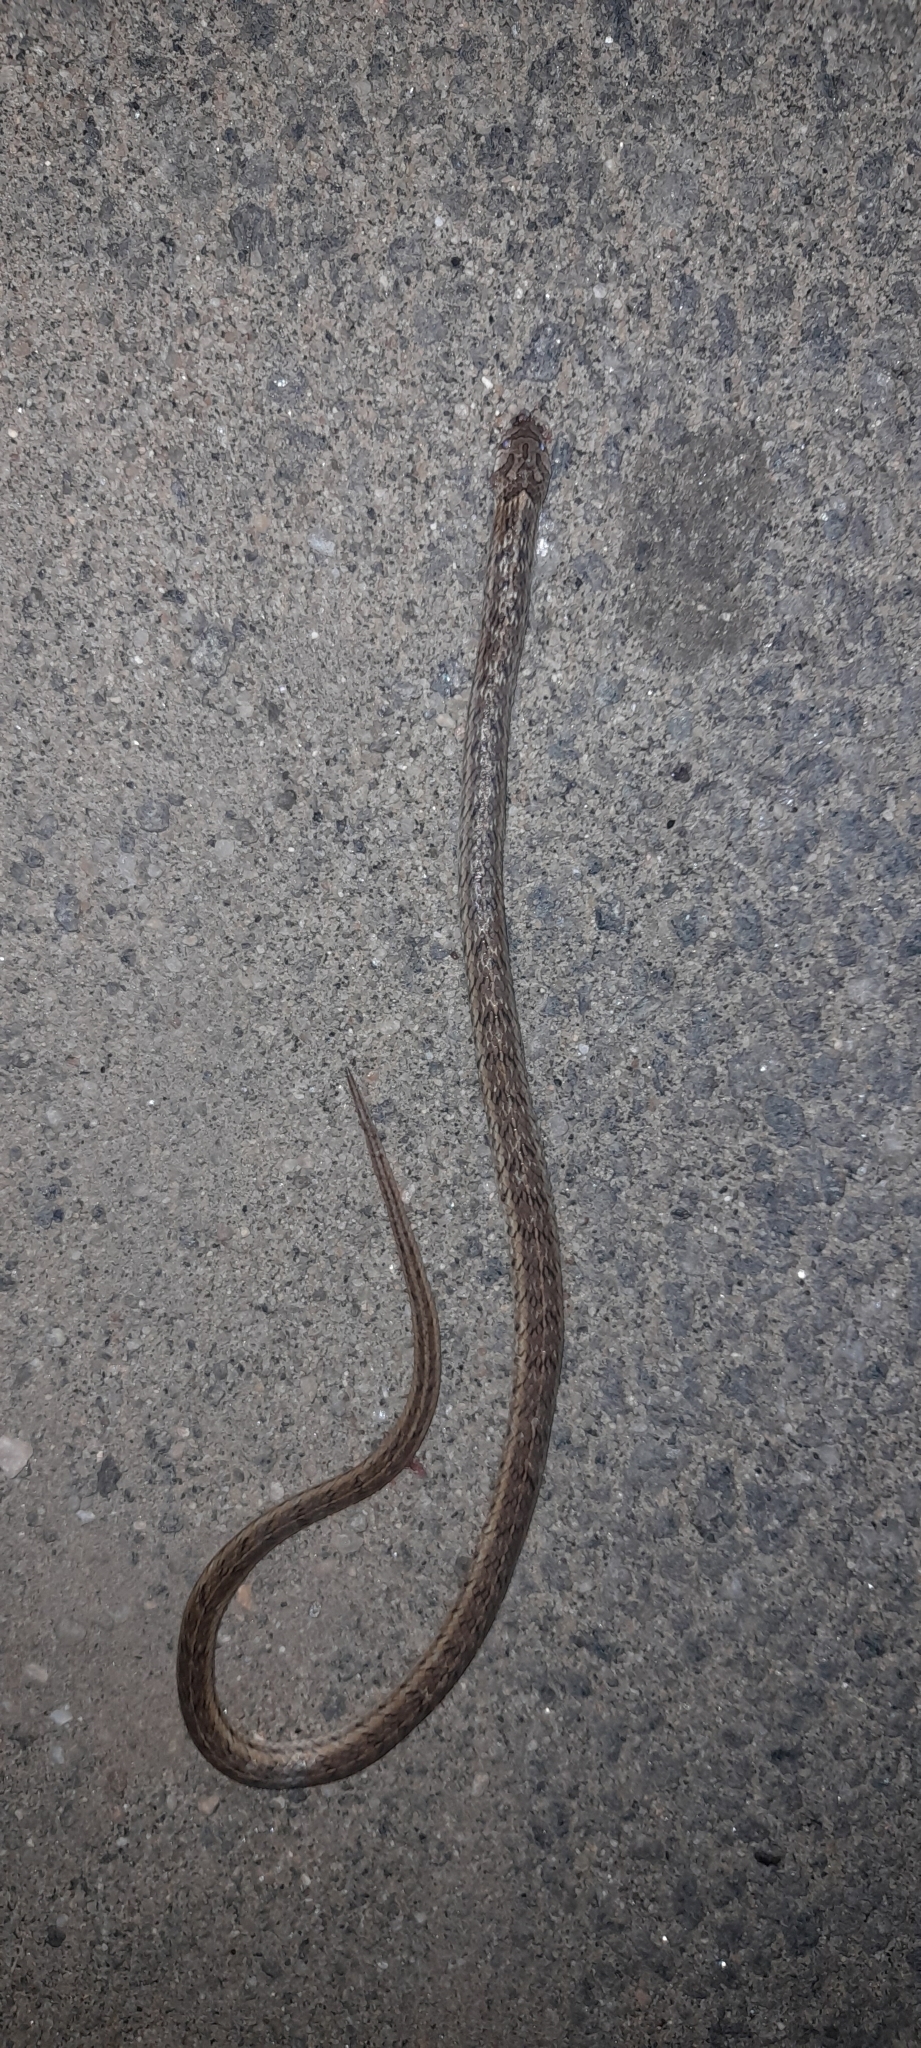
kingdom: Animalia
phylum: Chordata
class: Squamata
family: Colubridae
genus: Oligodon
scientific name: Oligodon taeniolatus
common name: Loos snake
